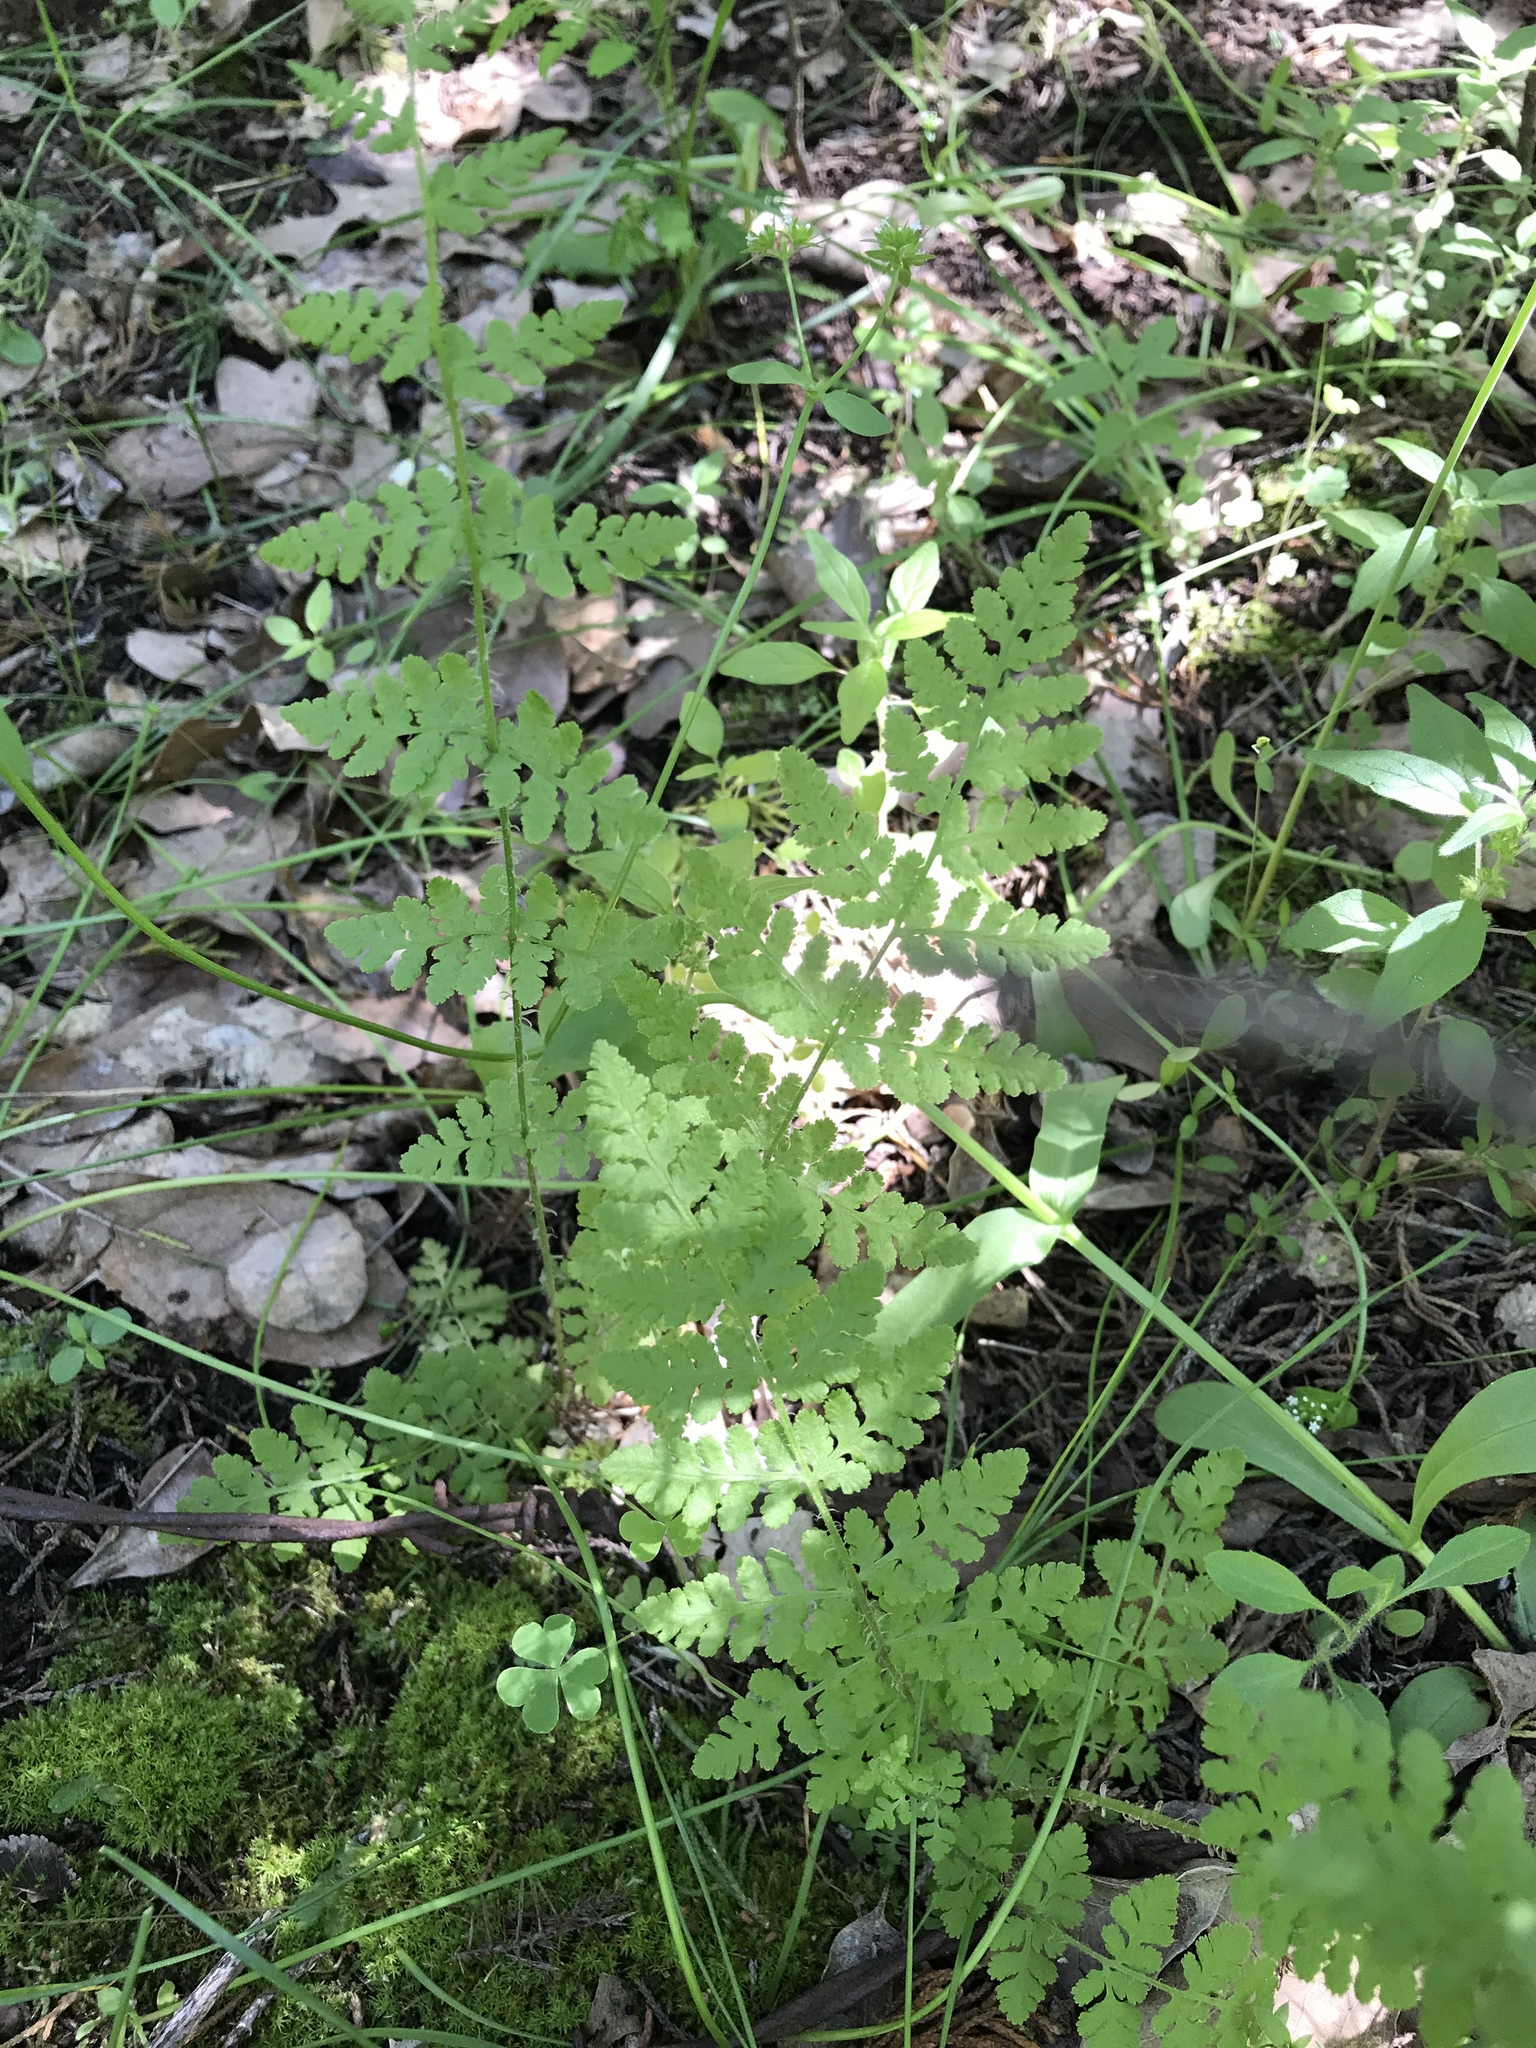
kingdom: Plantae
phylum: Tracheophyta
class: Polypodiopsida
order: Polypodiales
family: Woodsiaceae
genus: Physematium
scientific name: Physematium obtusum
